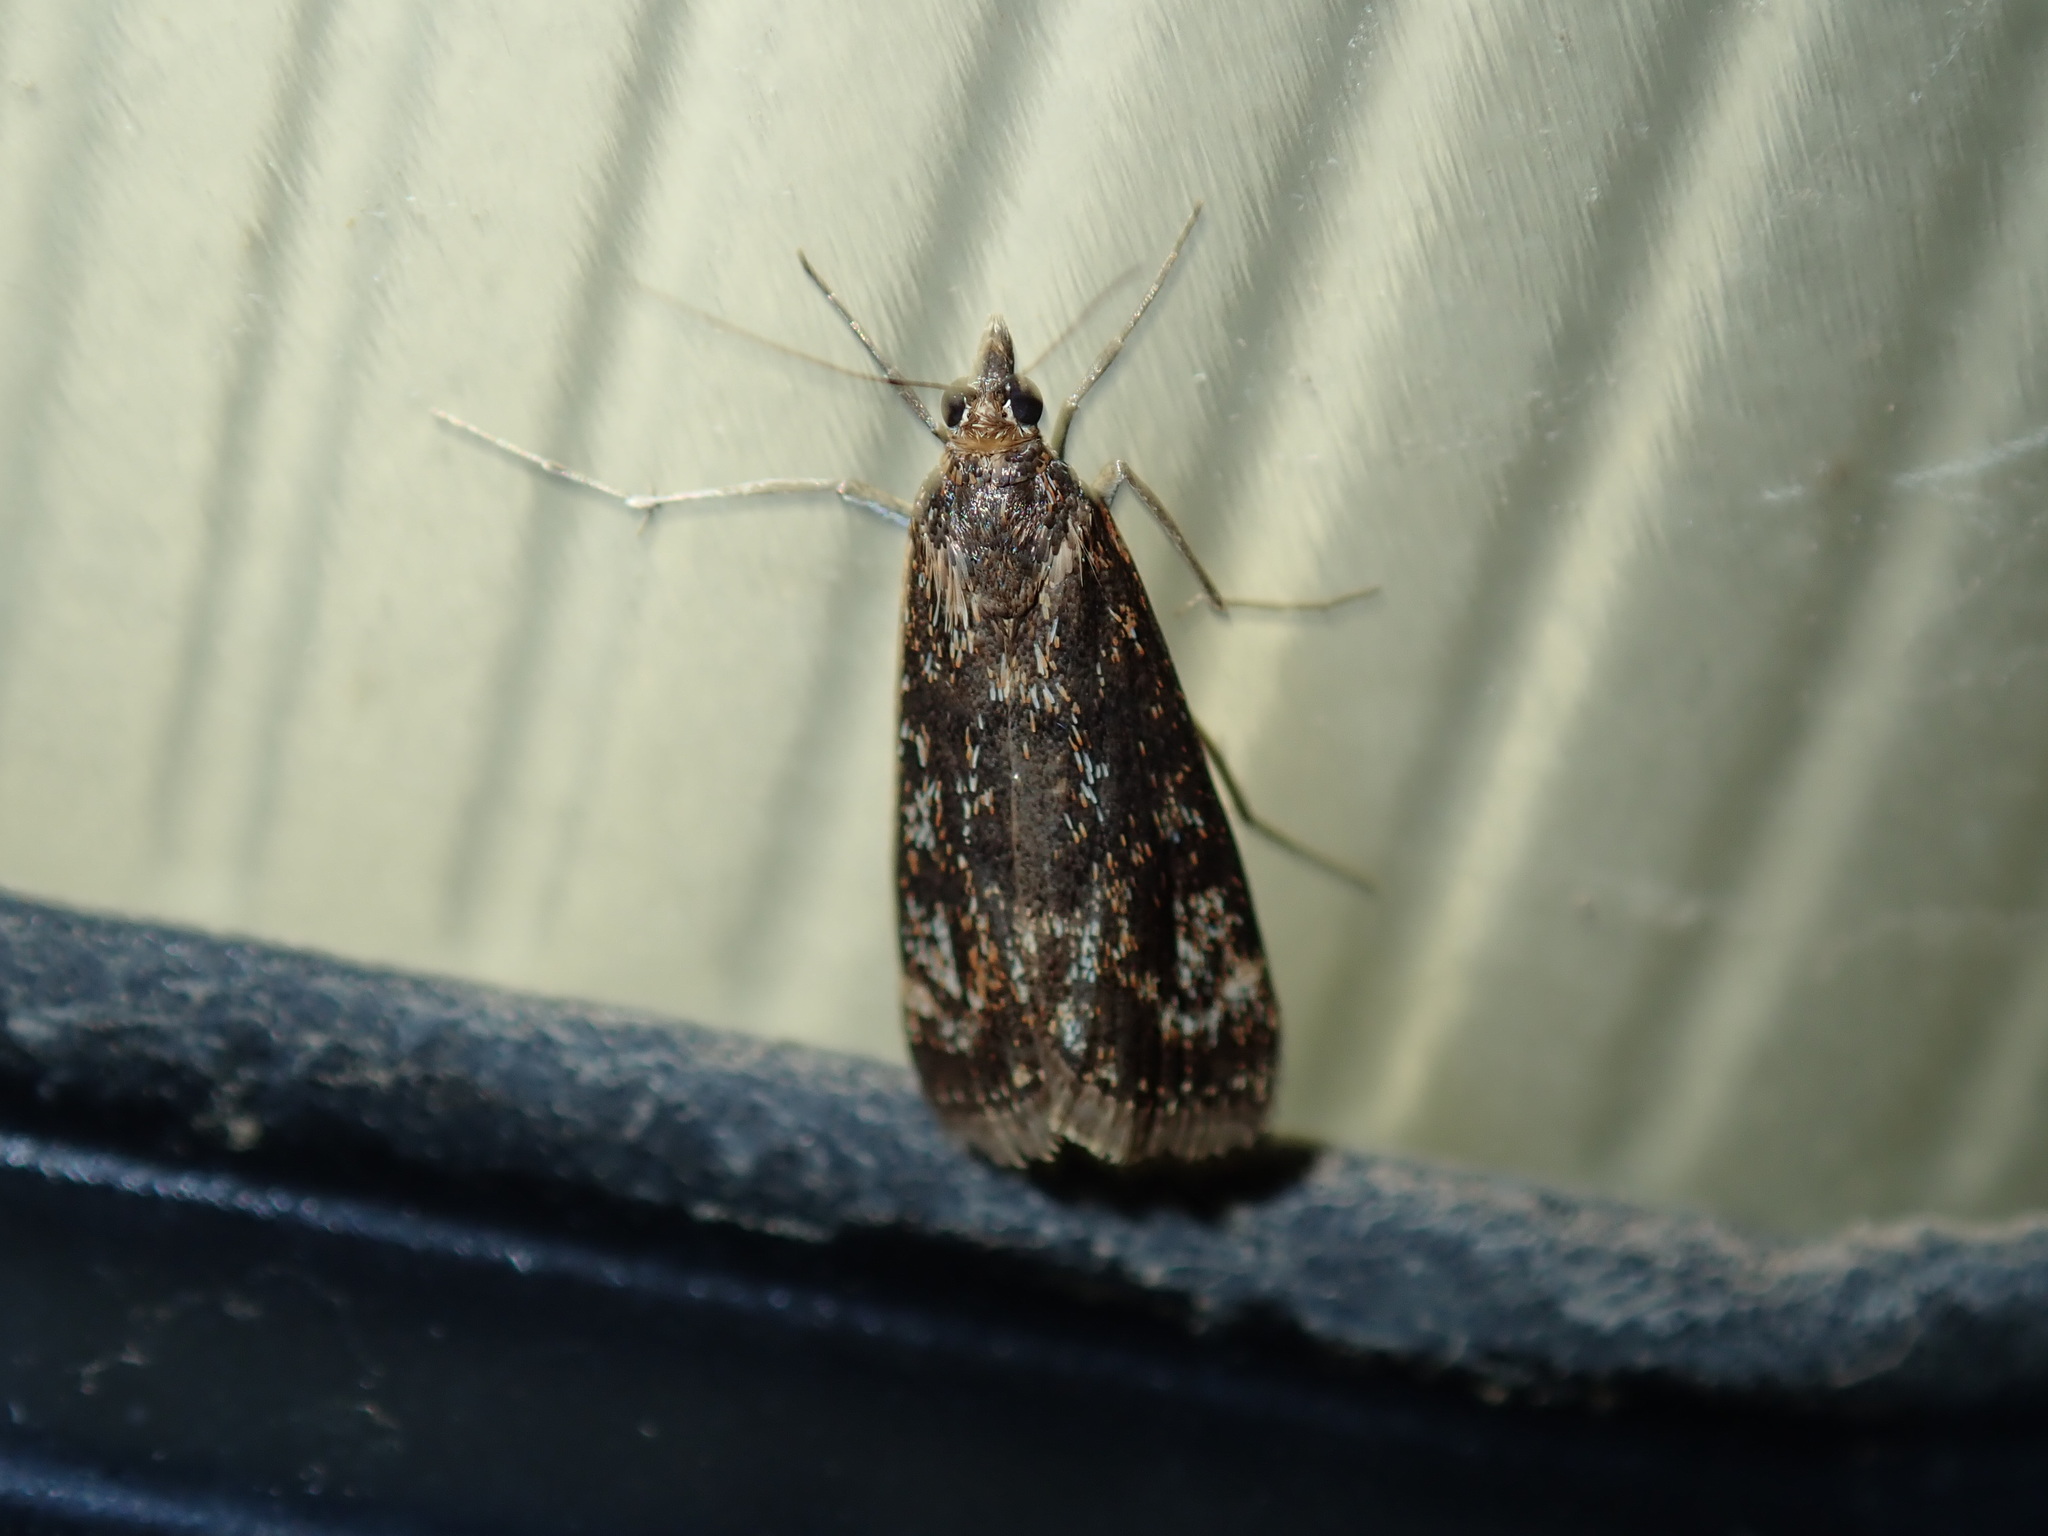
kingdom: Animalia
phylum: Arthropoda
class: Insecta
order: Lepidoptera
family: Crambidae
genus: Achyra
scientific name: Achyra affinitalis
